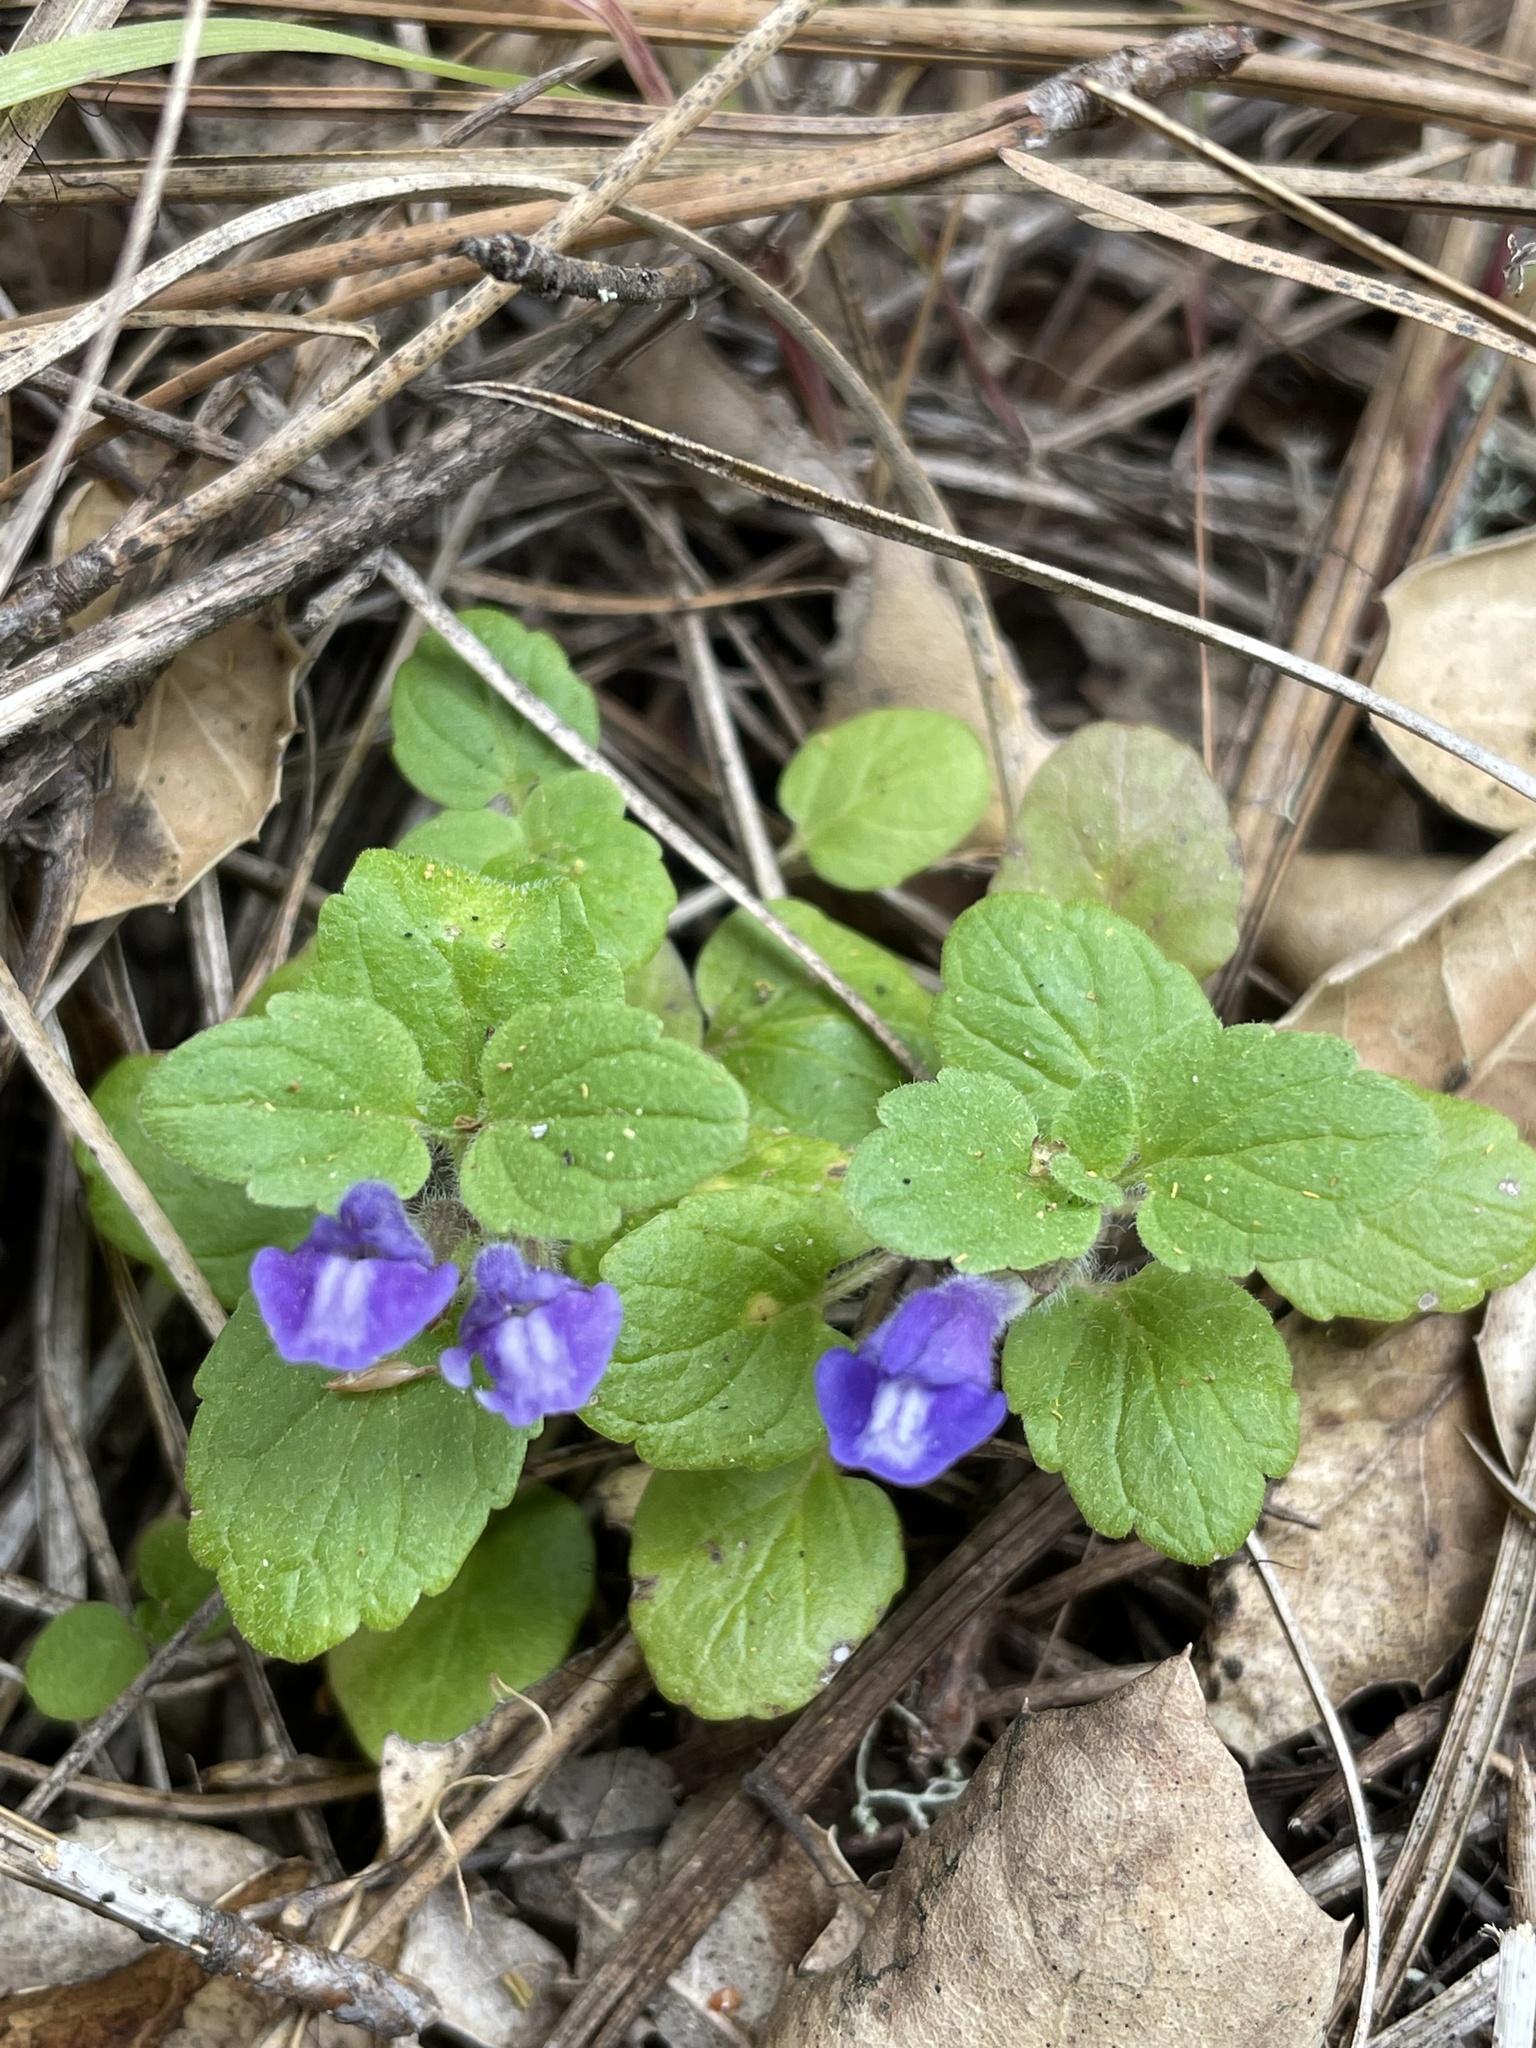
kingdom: Plantae
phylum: Tracheophyta
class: Magnoliopsida
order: Lamiales
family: Lamiaceae
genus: Scutellaria
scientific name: Scutellaria tuberosa
